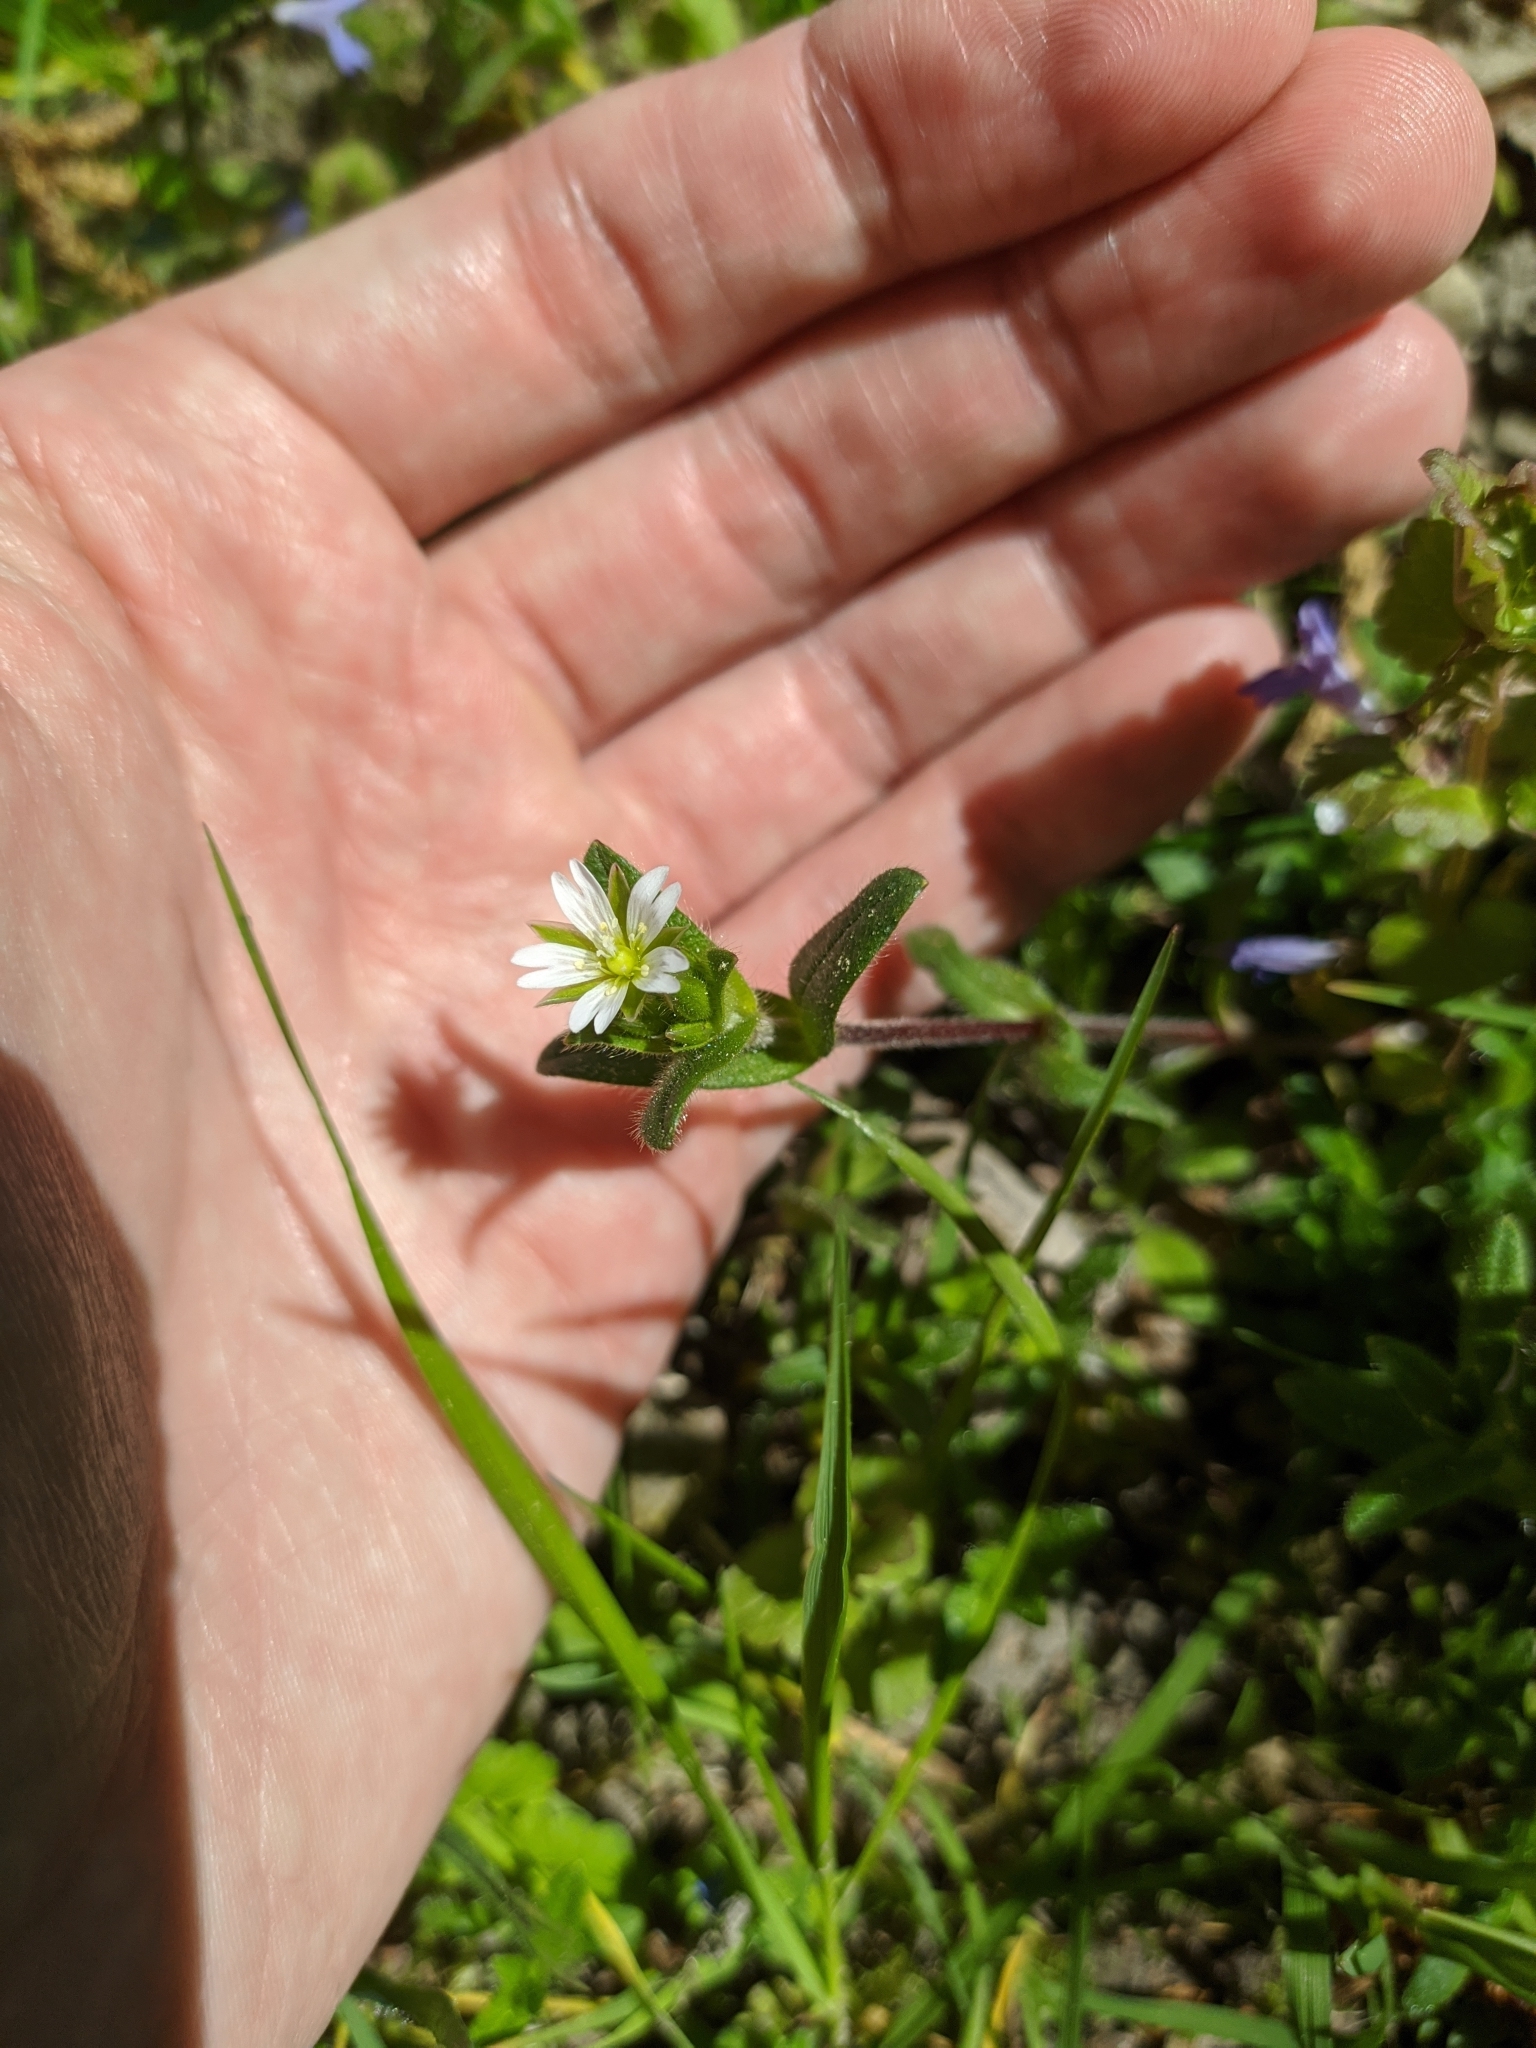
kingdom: Plantae
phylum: Tracheophyta
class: Magnoliopsida
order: Caryophyllales
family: Caryophyllaceae
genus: Cerastium
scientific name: Cerastium holosteoides
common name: Big chickweed
